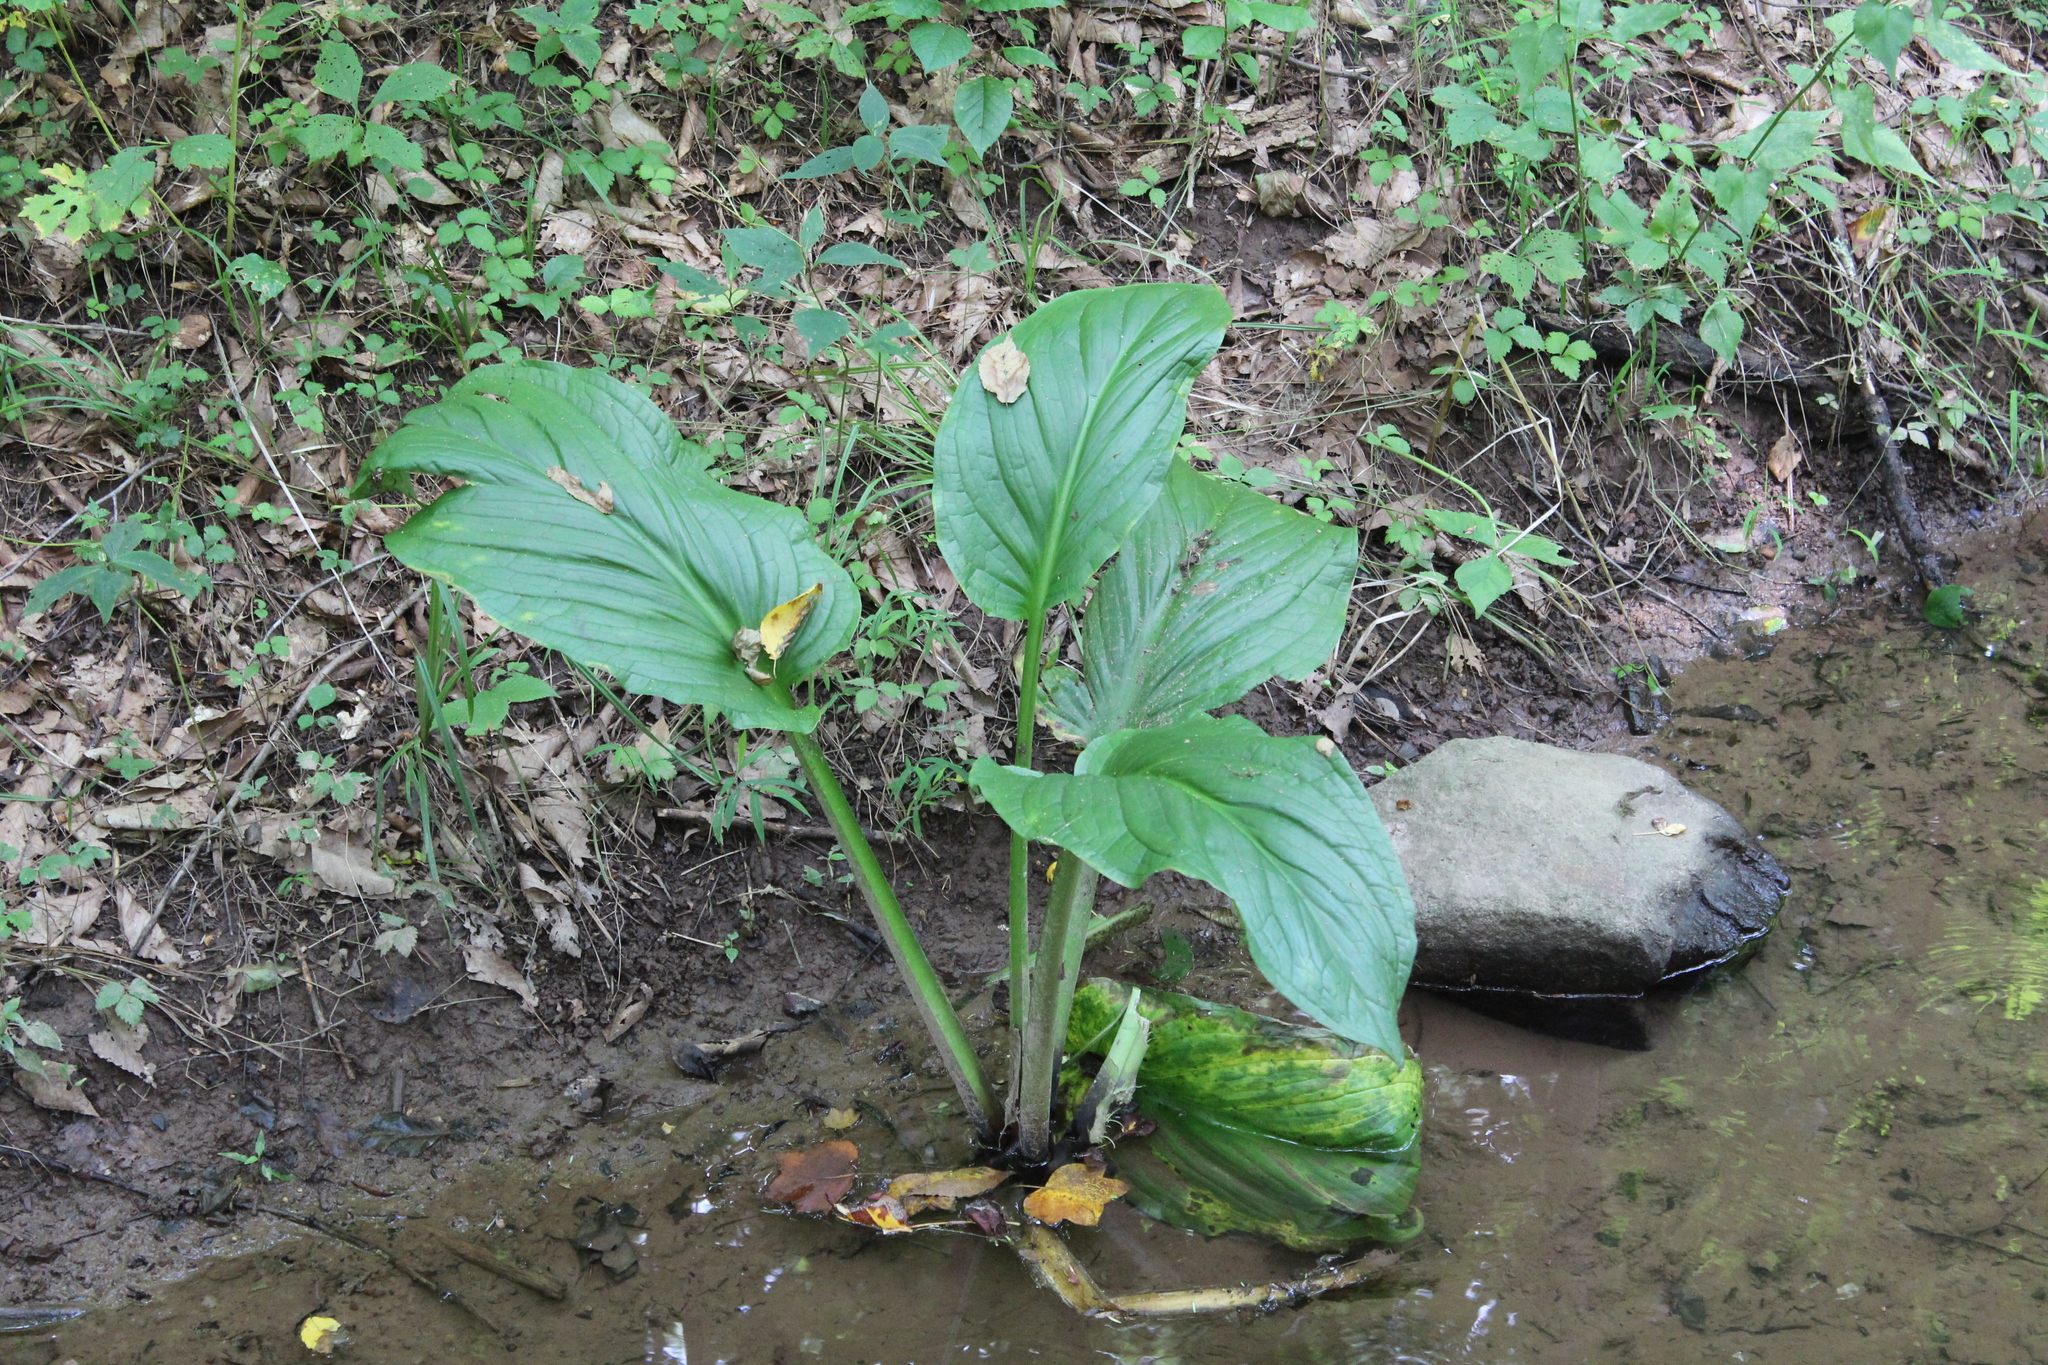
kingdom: Plantae
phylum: Tracheophyta
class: Liliopsida
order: Alismatales
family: Araceae
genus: Symplocarpus
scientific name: Symplocarpus foetidus
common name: Eastern skunk cabbage
